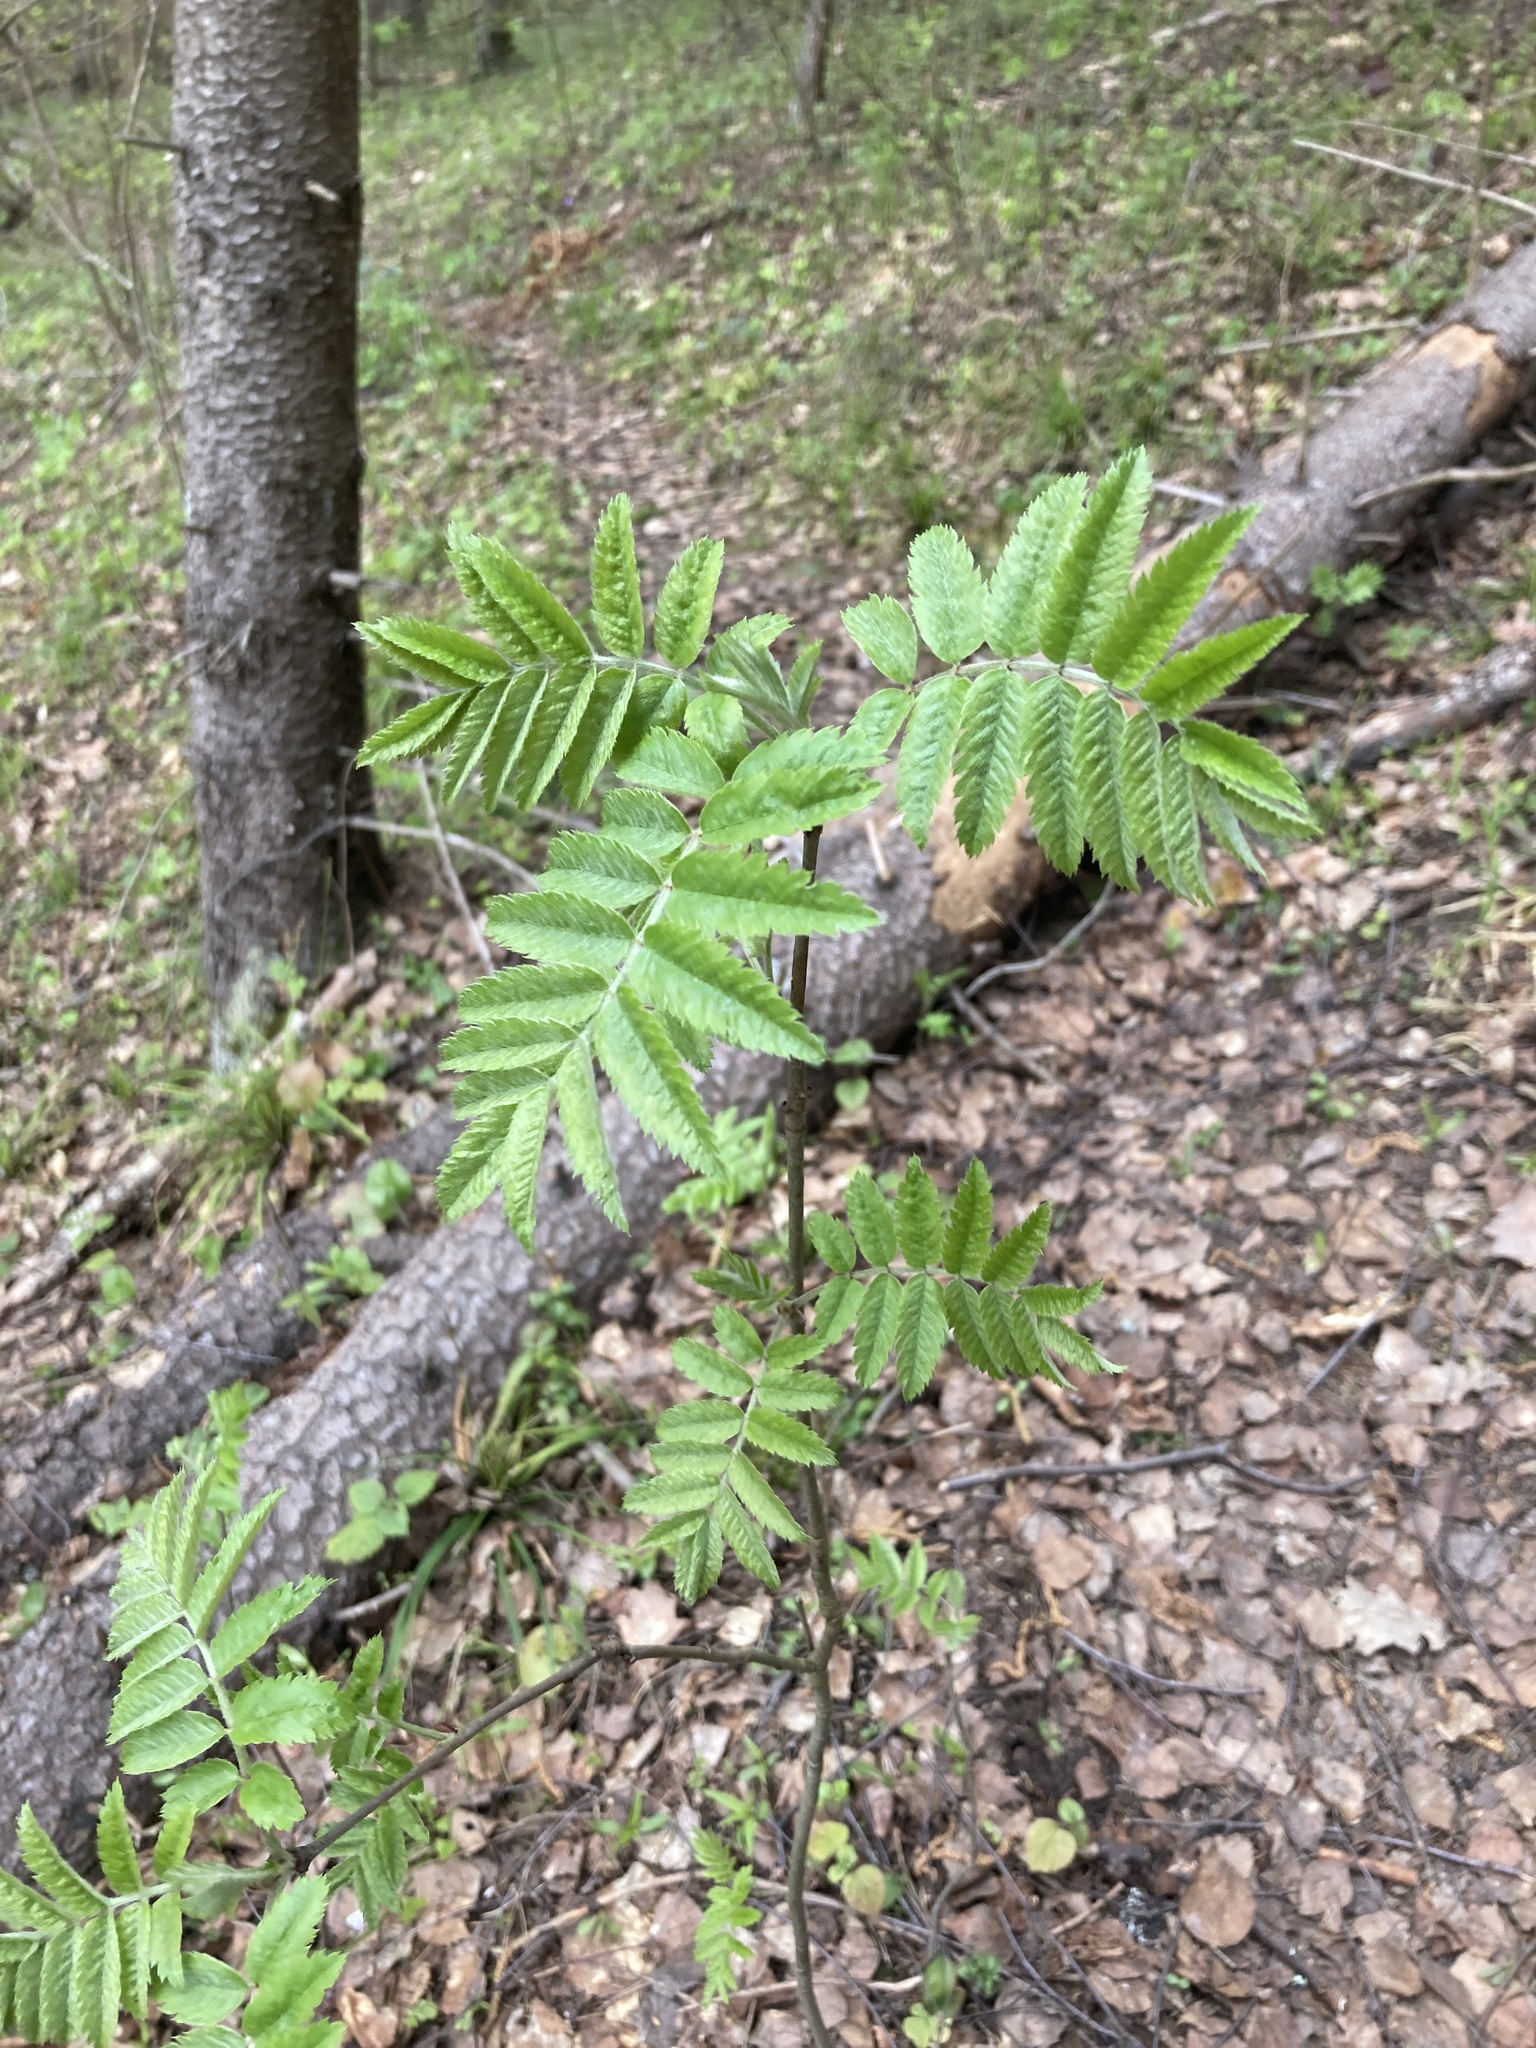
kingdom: Plantae
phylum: Tracheophyta
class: Magnoliopsida
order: Rosales
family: Rosaceae
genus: Sorbus
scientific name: Sorbus aucuparia
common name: Rowan
